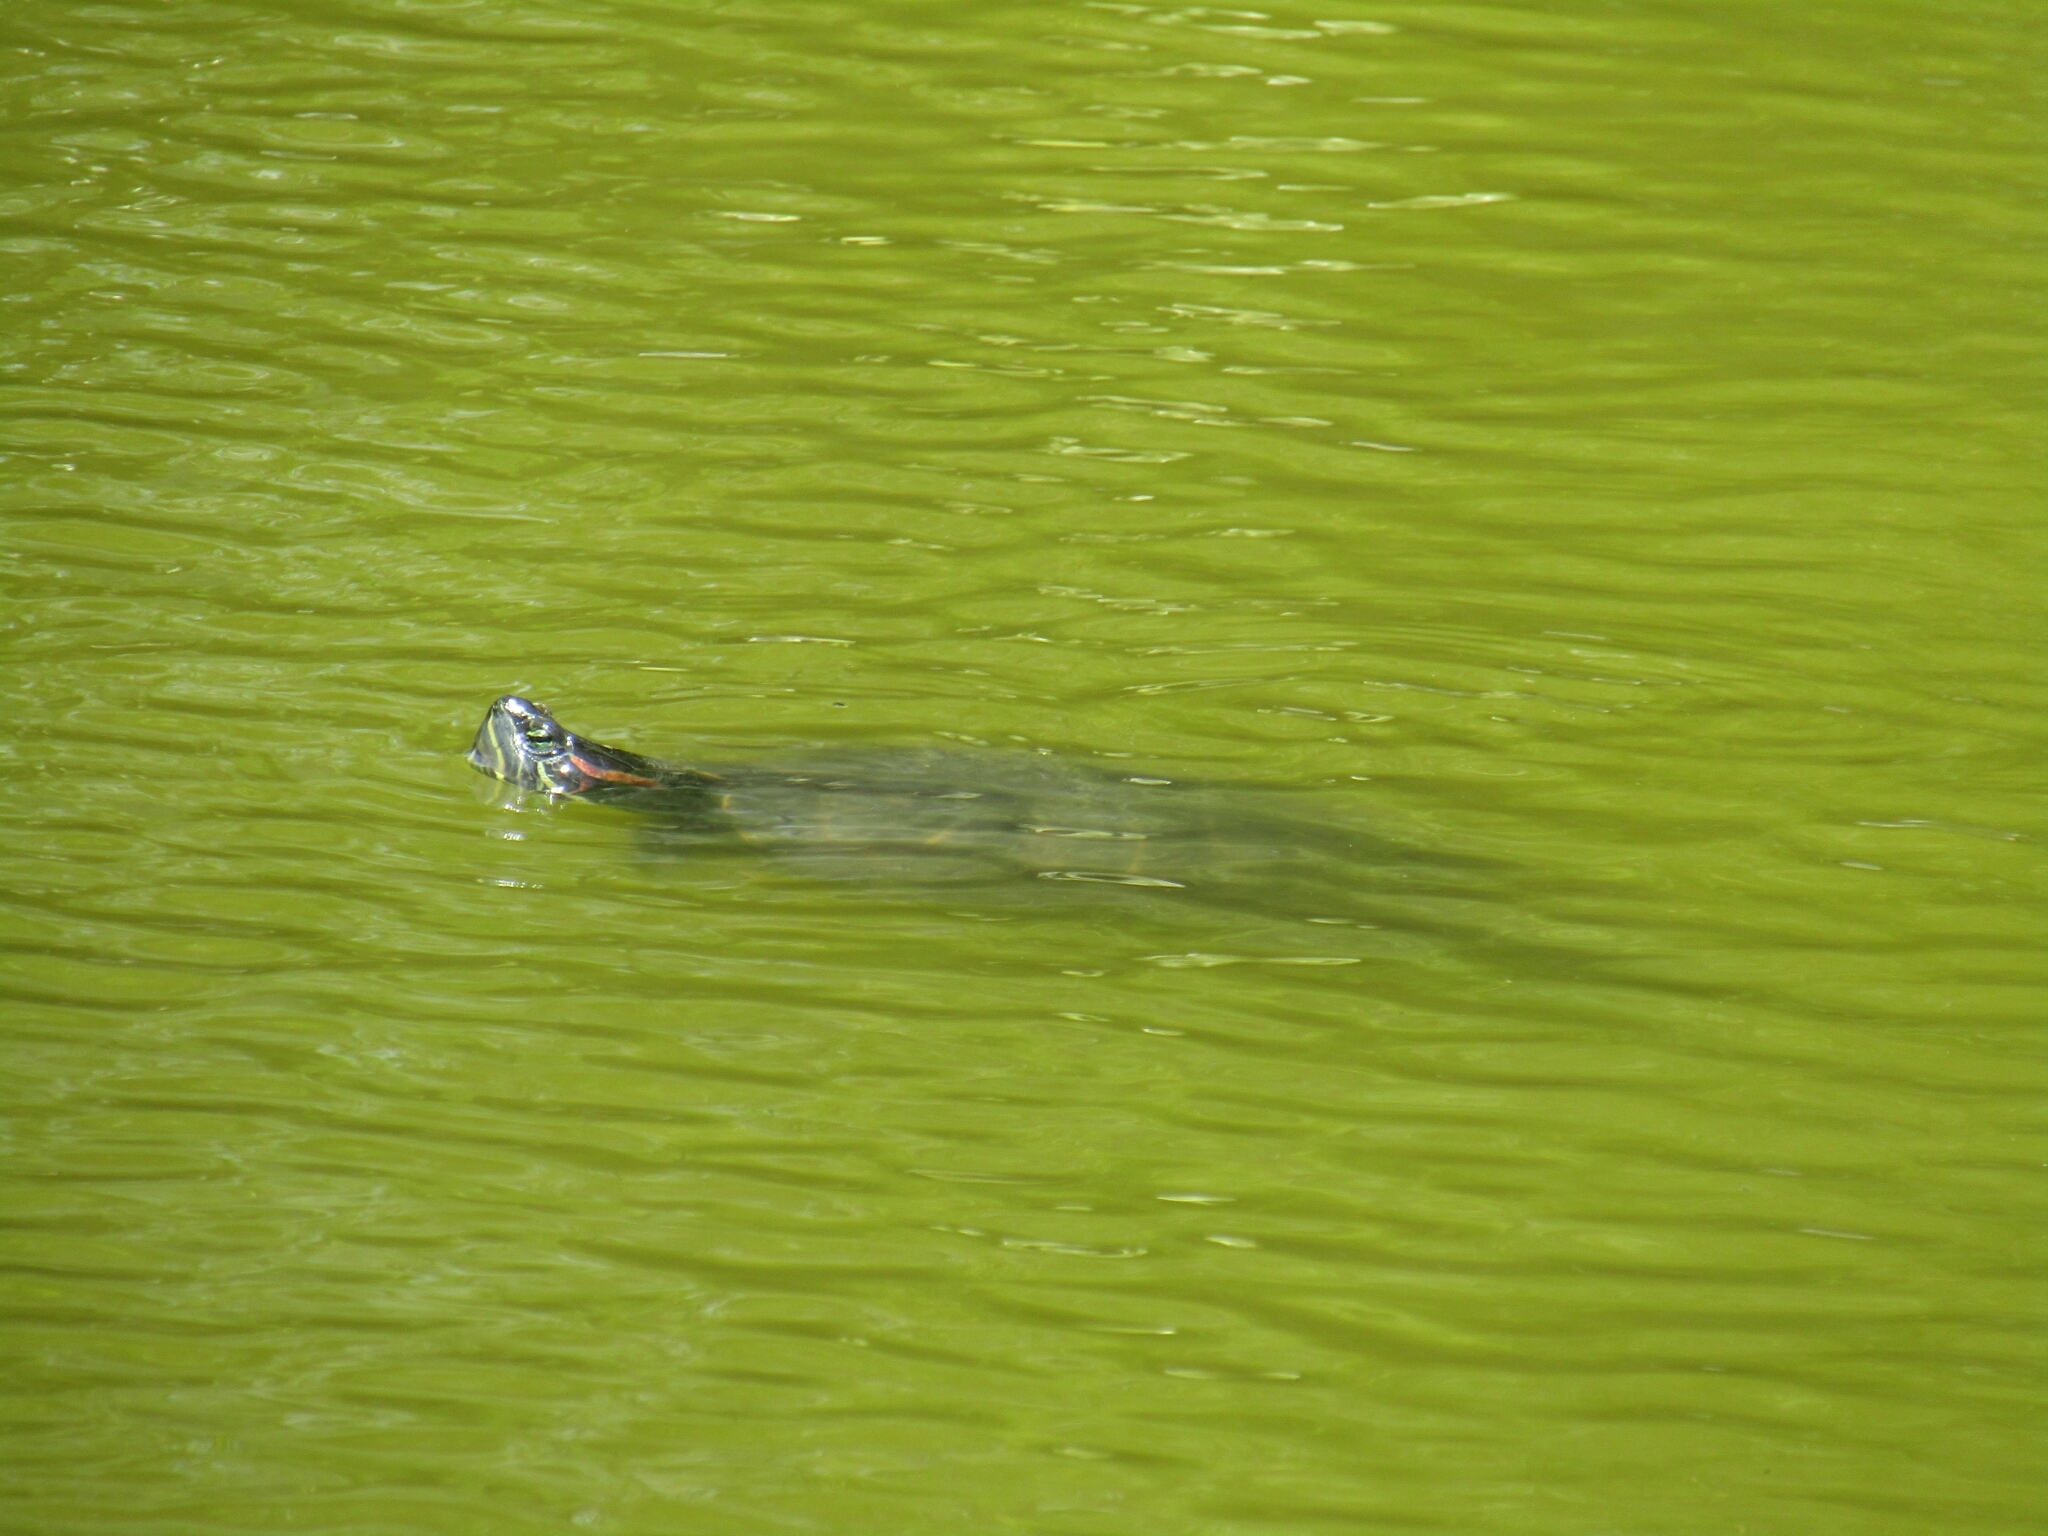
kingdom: Animalia
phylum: Chordata
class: Testudines
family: Emydidae
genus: Trachemys
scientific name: Trachemys scripta
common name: Slider
